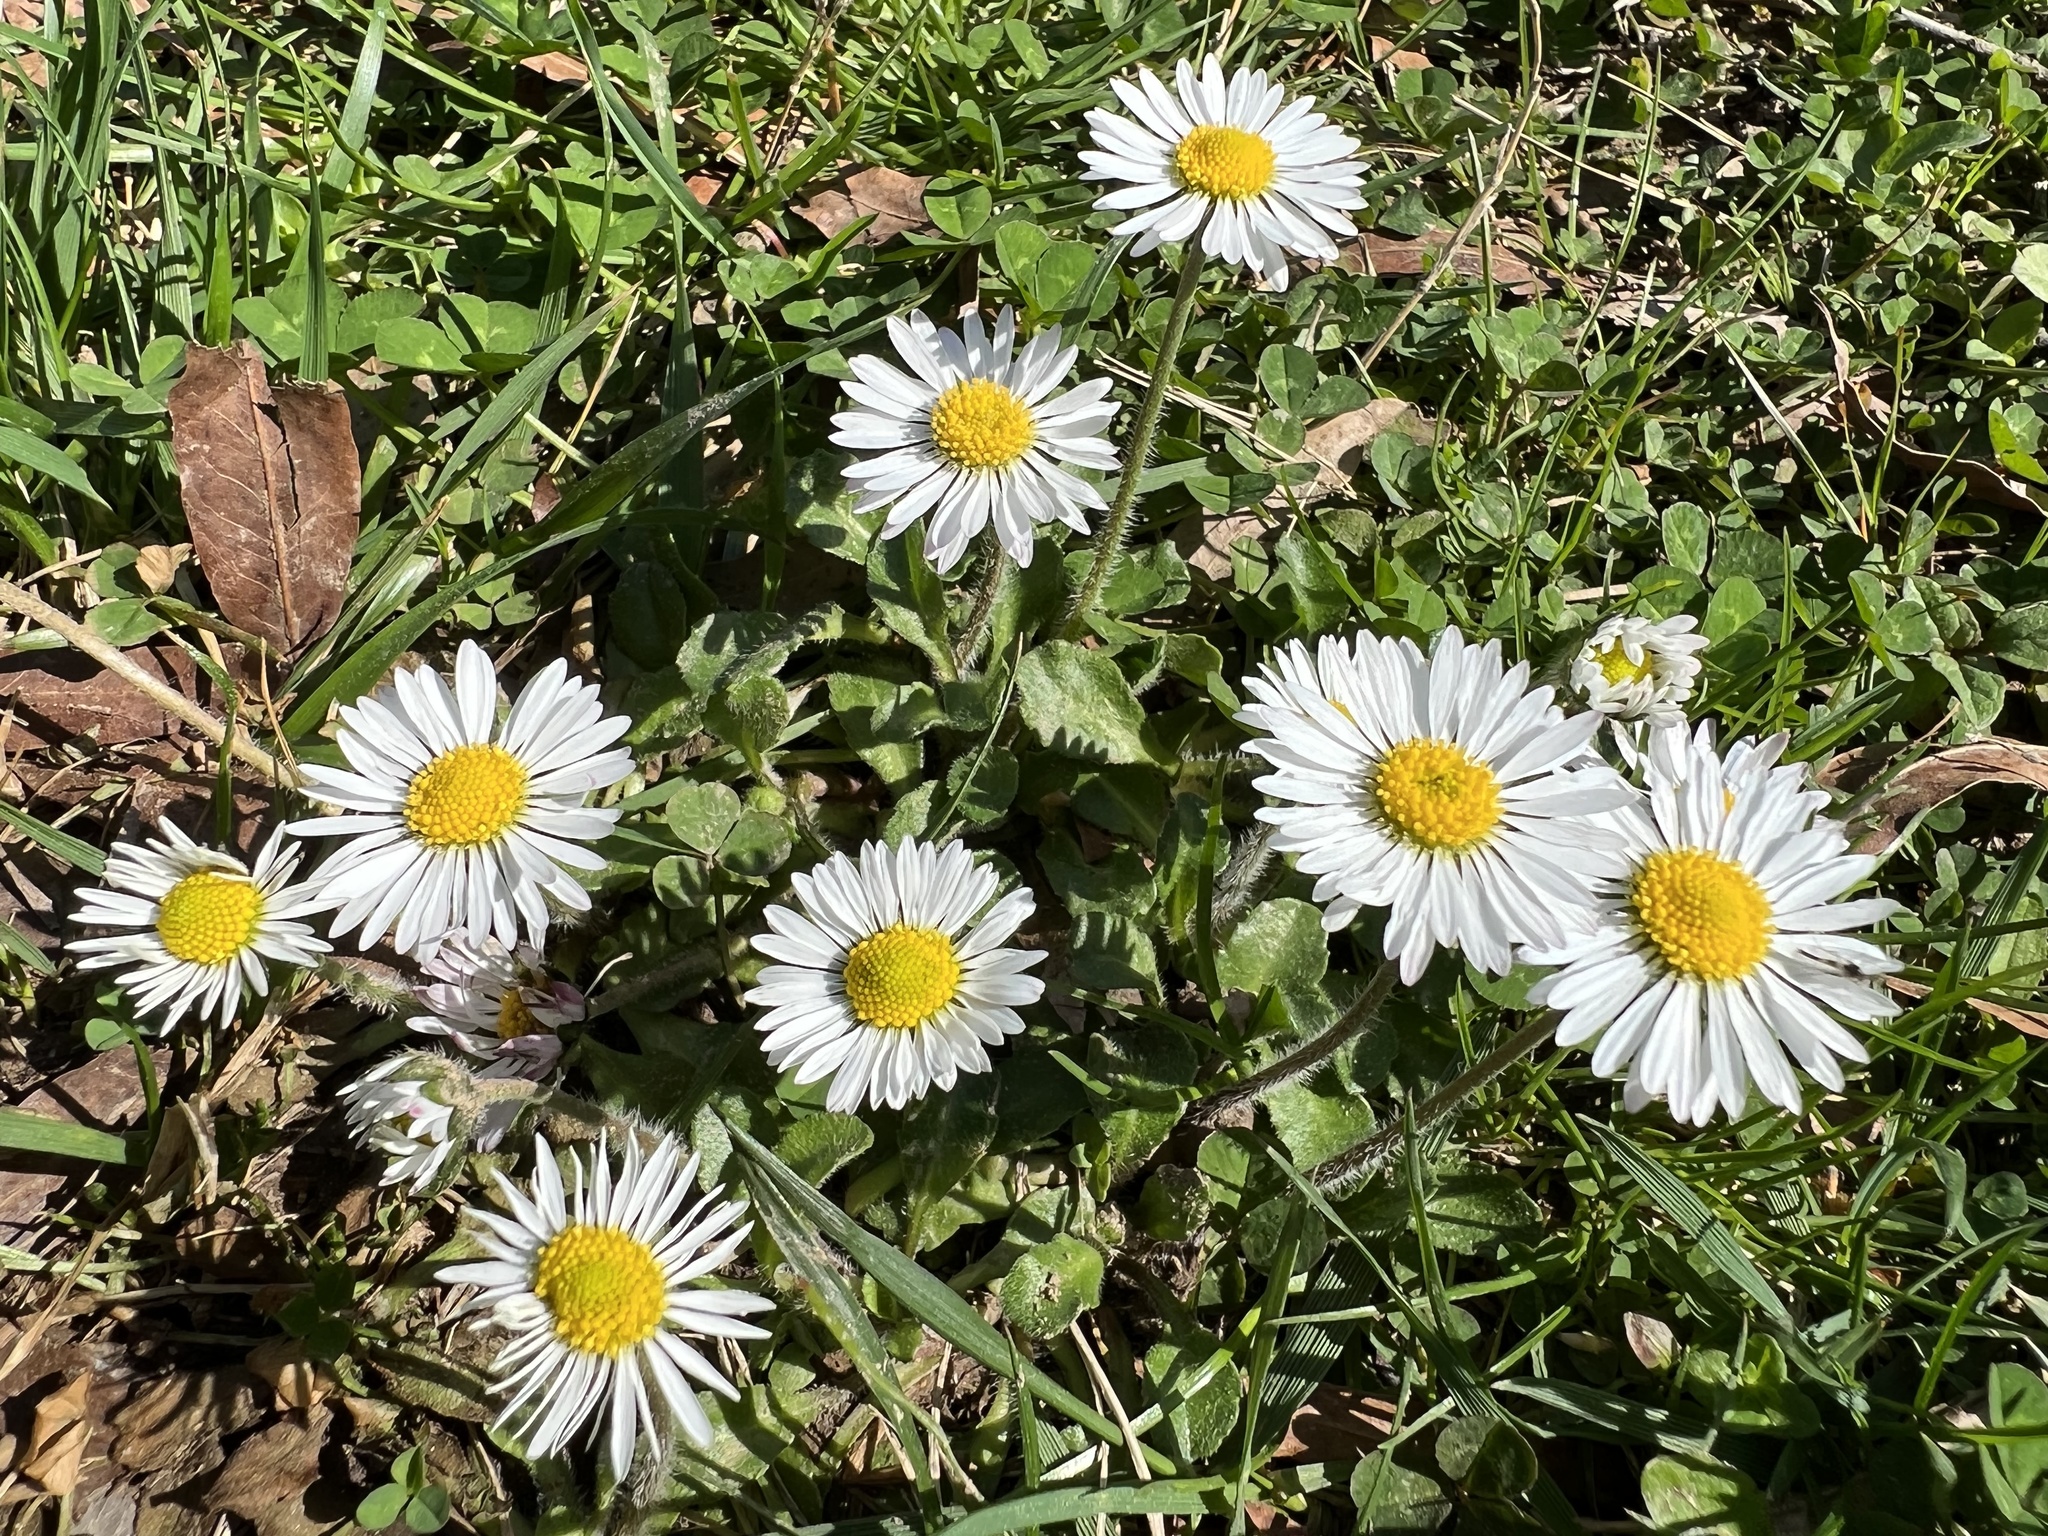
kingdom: Plantae
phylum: Tracheophyta
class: Magnoliopsida
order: Asterales
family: Asteraceae
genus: Bellis
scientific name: Bellis perennis
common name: Lawndaisy
